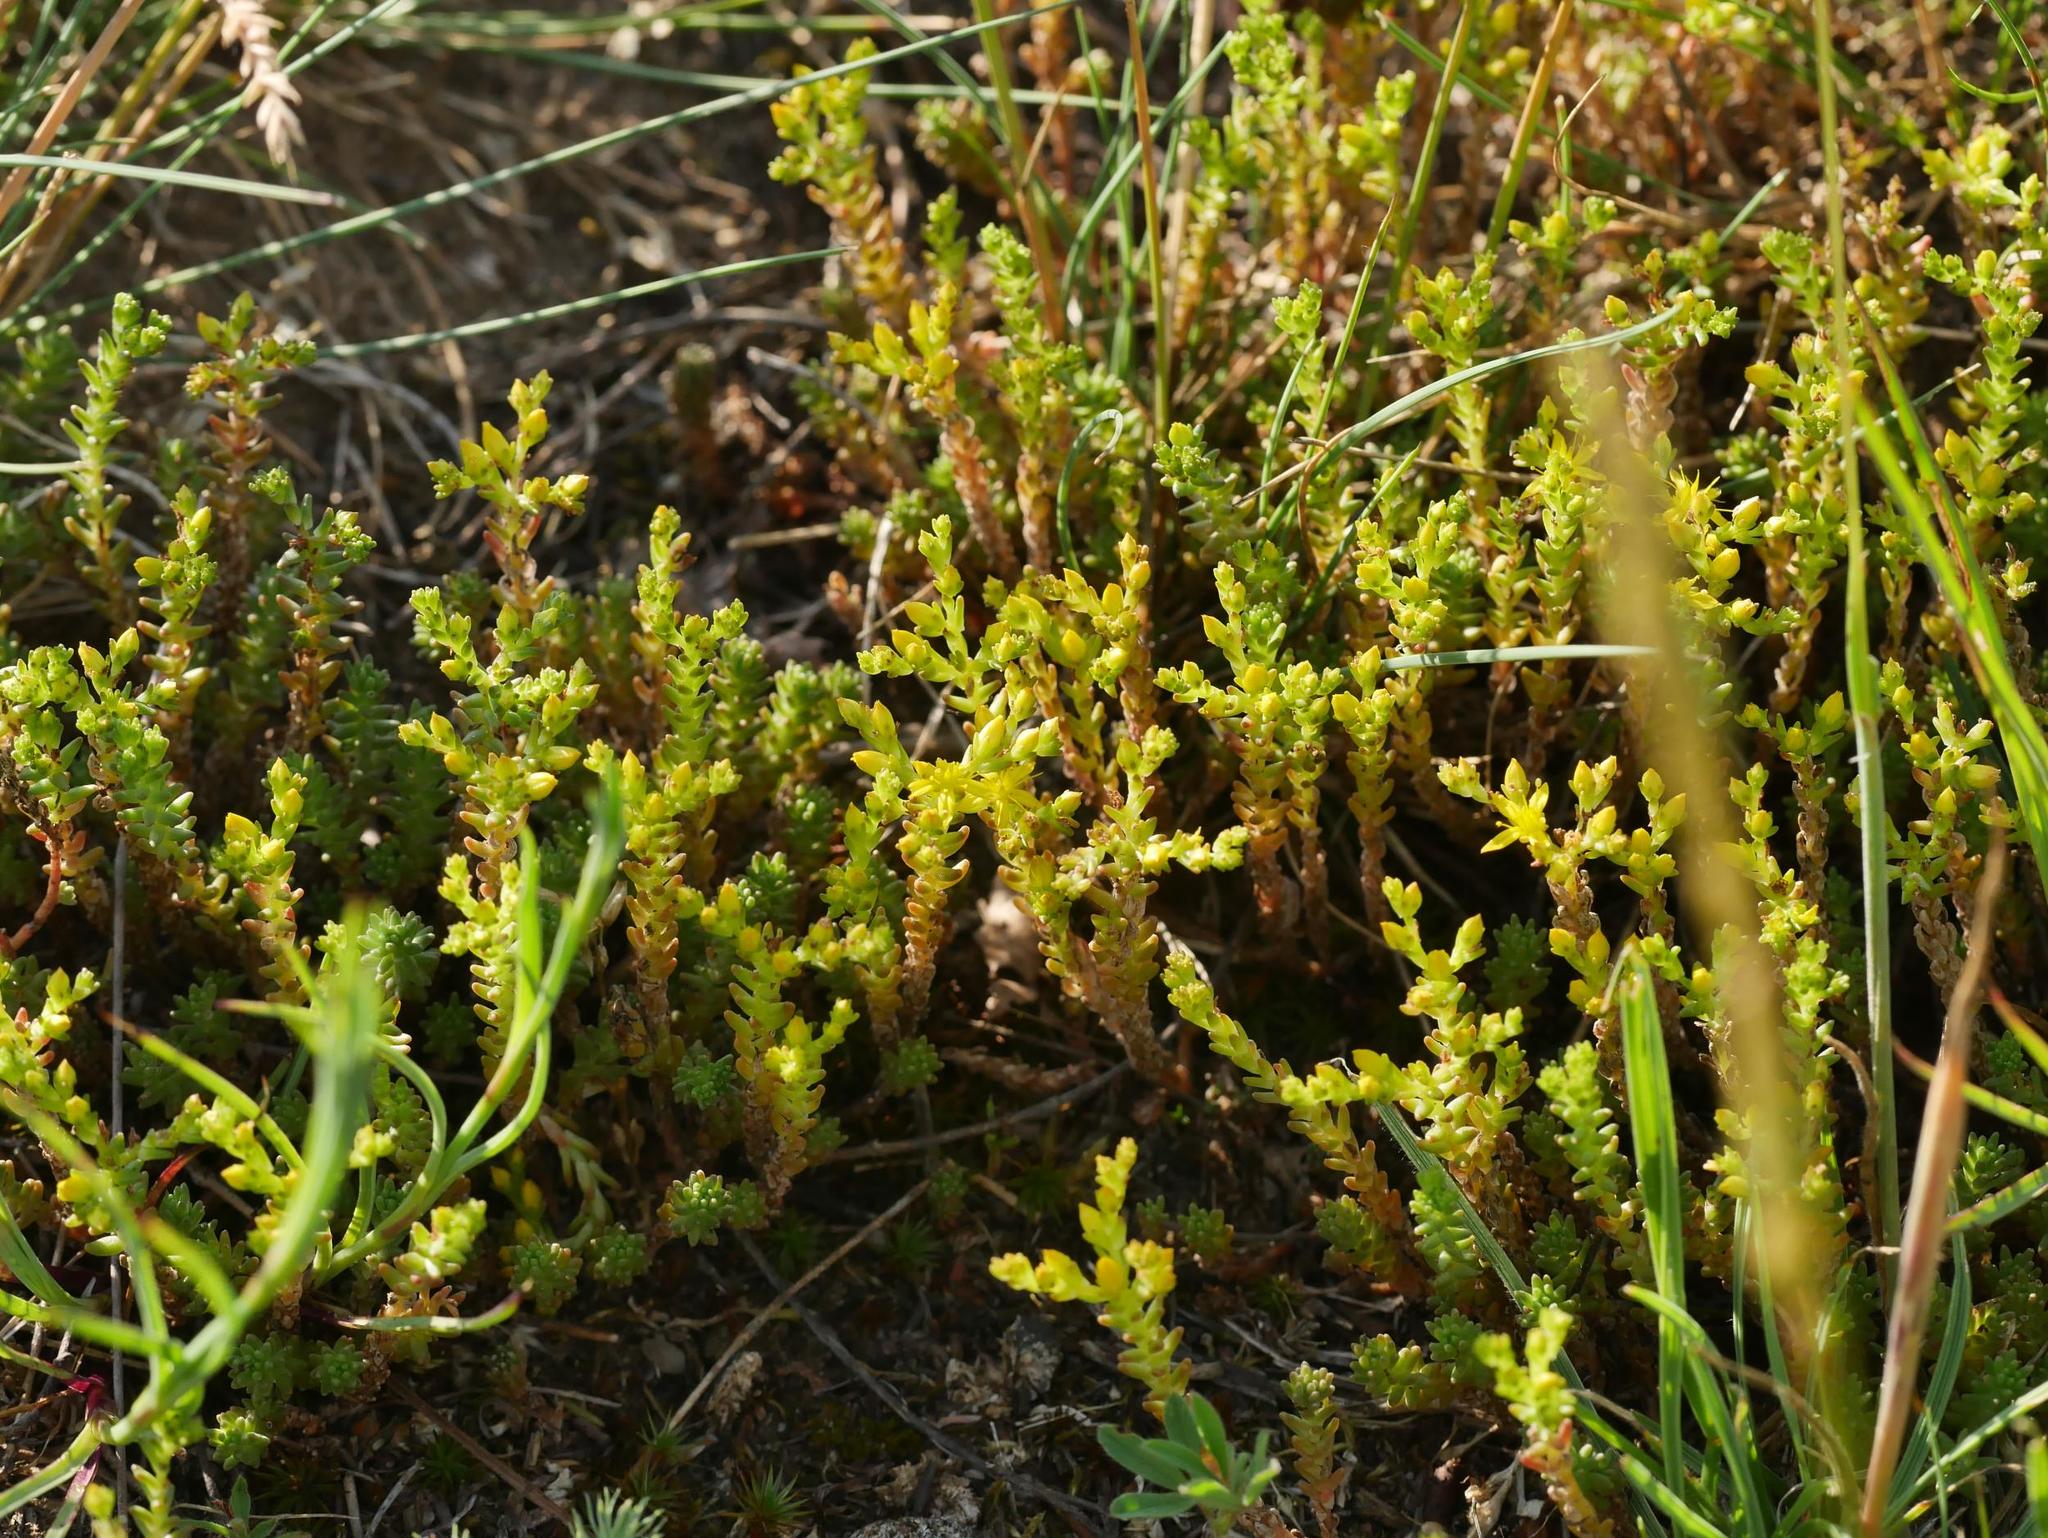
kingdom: Plantae
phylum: Tracheophyta
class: Magnoliopsida
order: Saxifragales
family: Crassulaceae
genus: Sedum
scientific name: Sedum sexangulare
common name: Tasteless stonecrop
